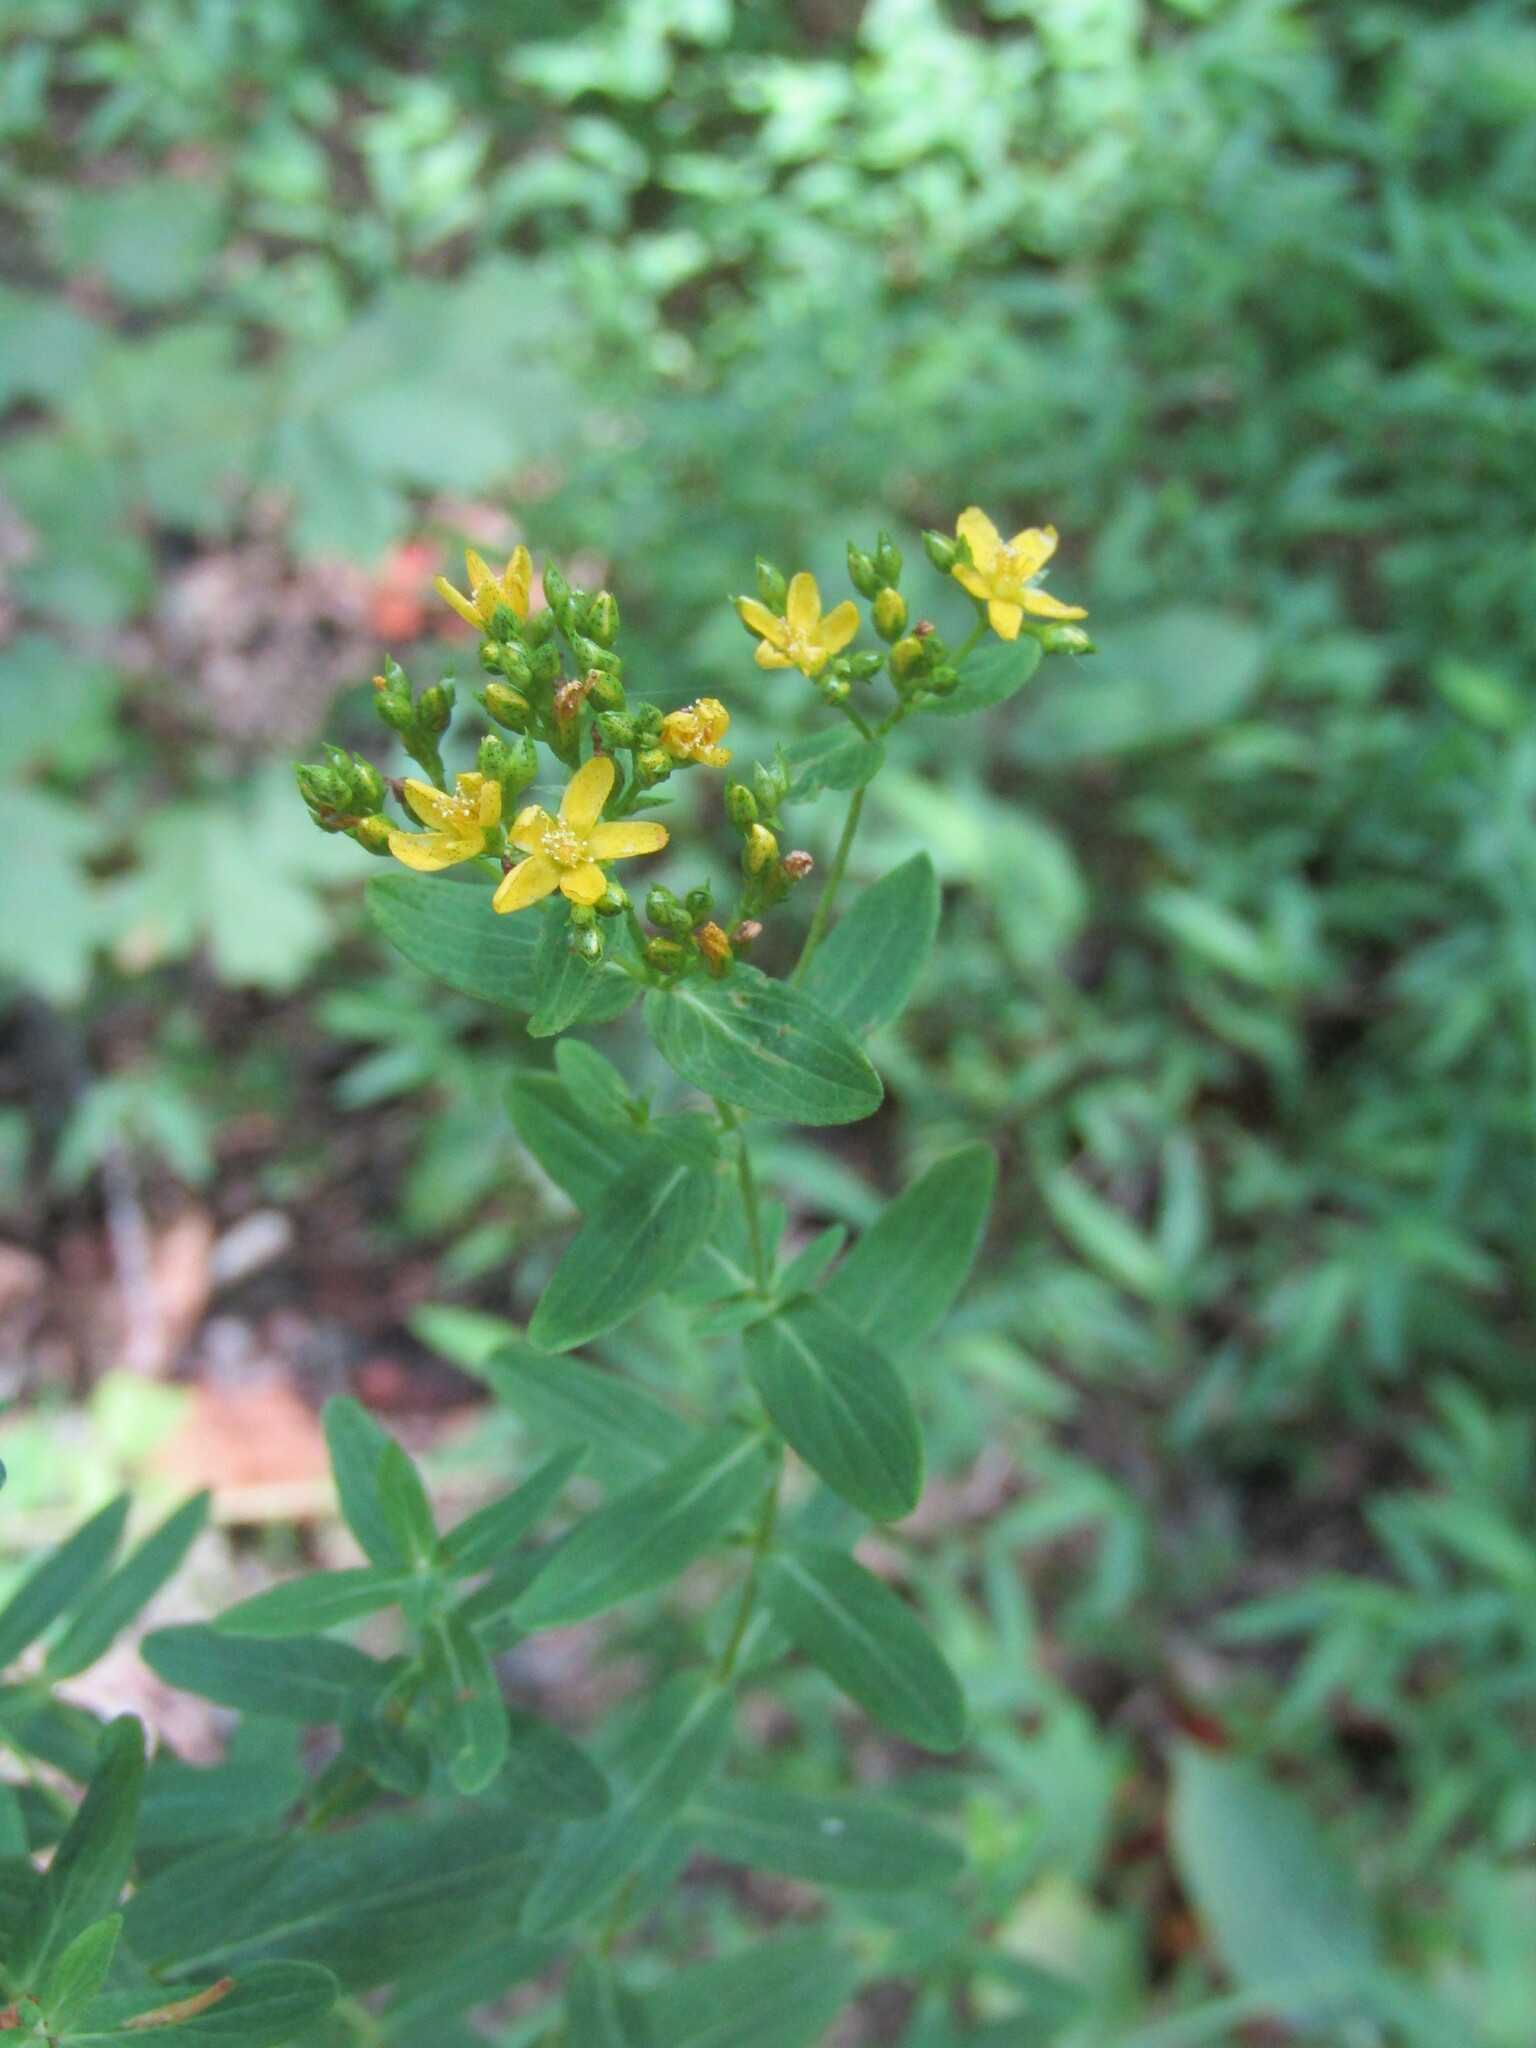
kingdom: Plantae
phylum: Tracheophyta
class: Magnoliopsida
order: Malpighiales
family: Hypericaceae
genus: Hypericum
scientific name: Hypericum punctatum
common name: Spotted st. john's-wort
